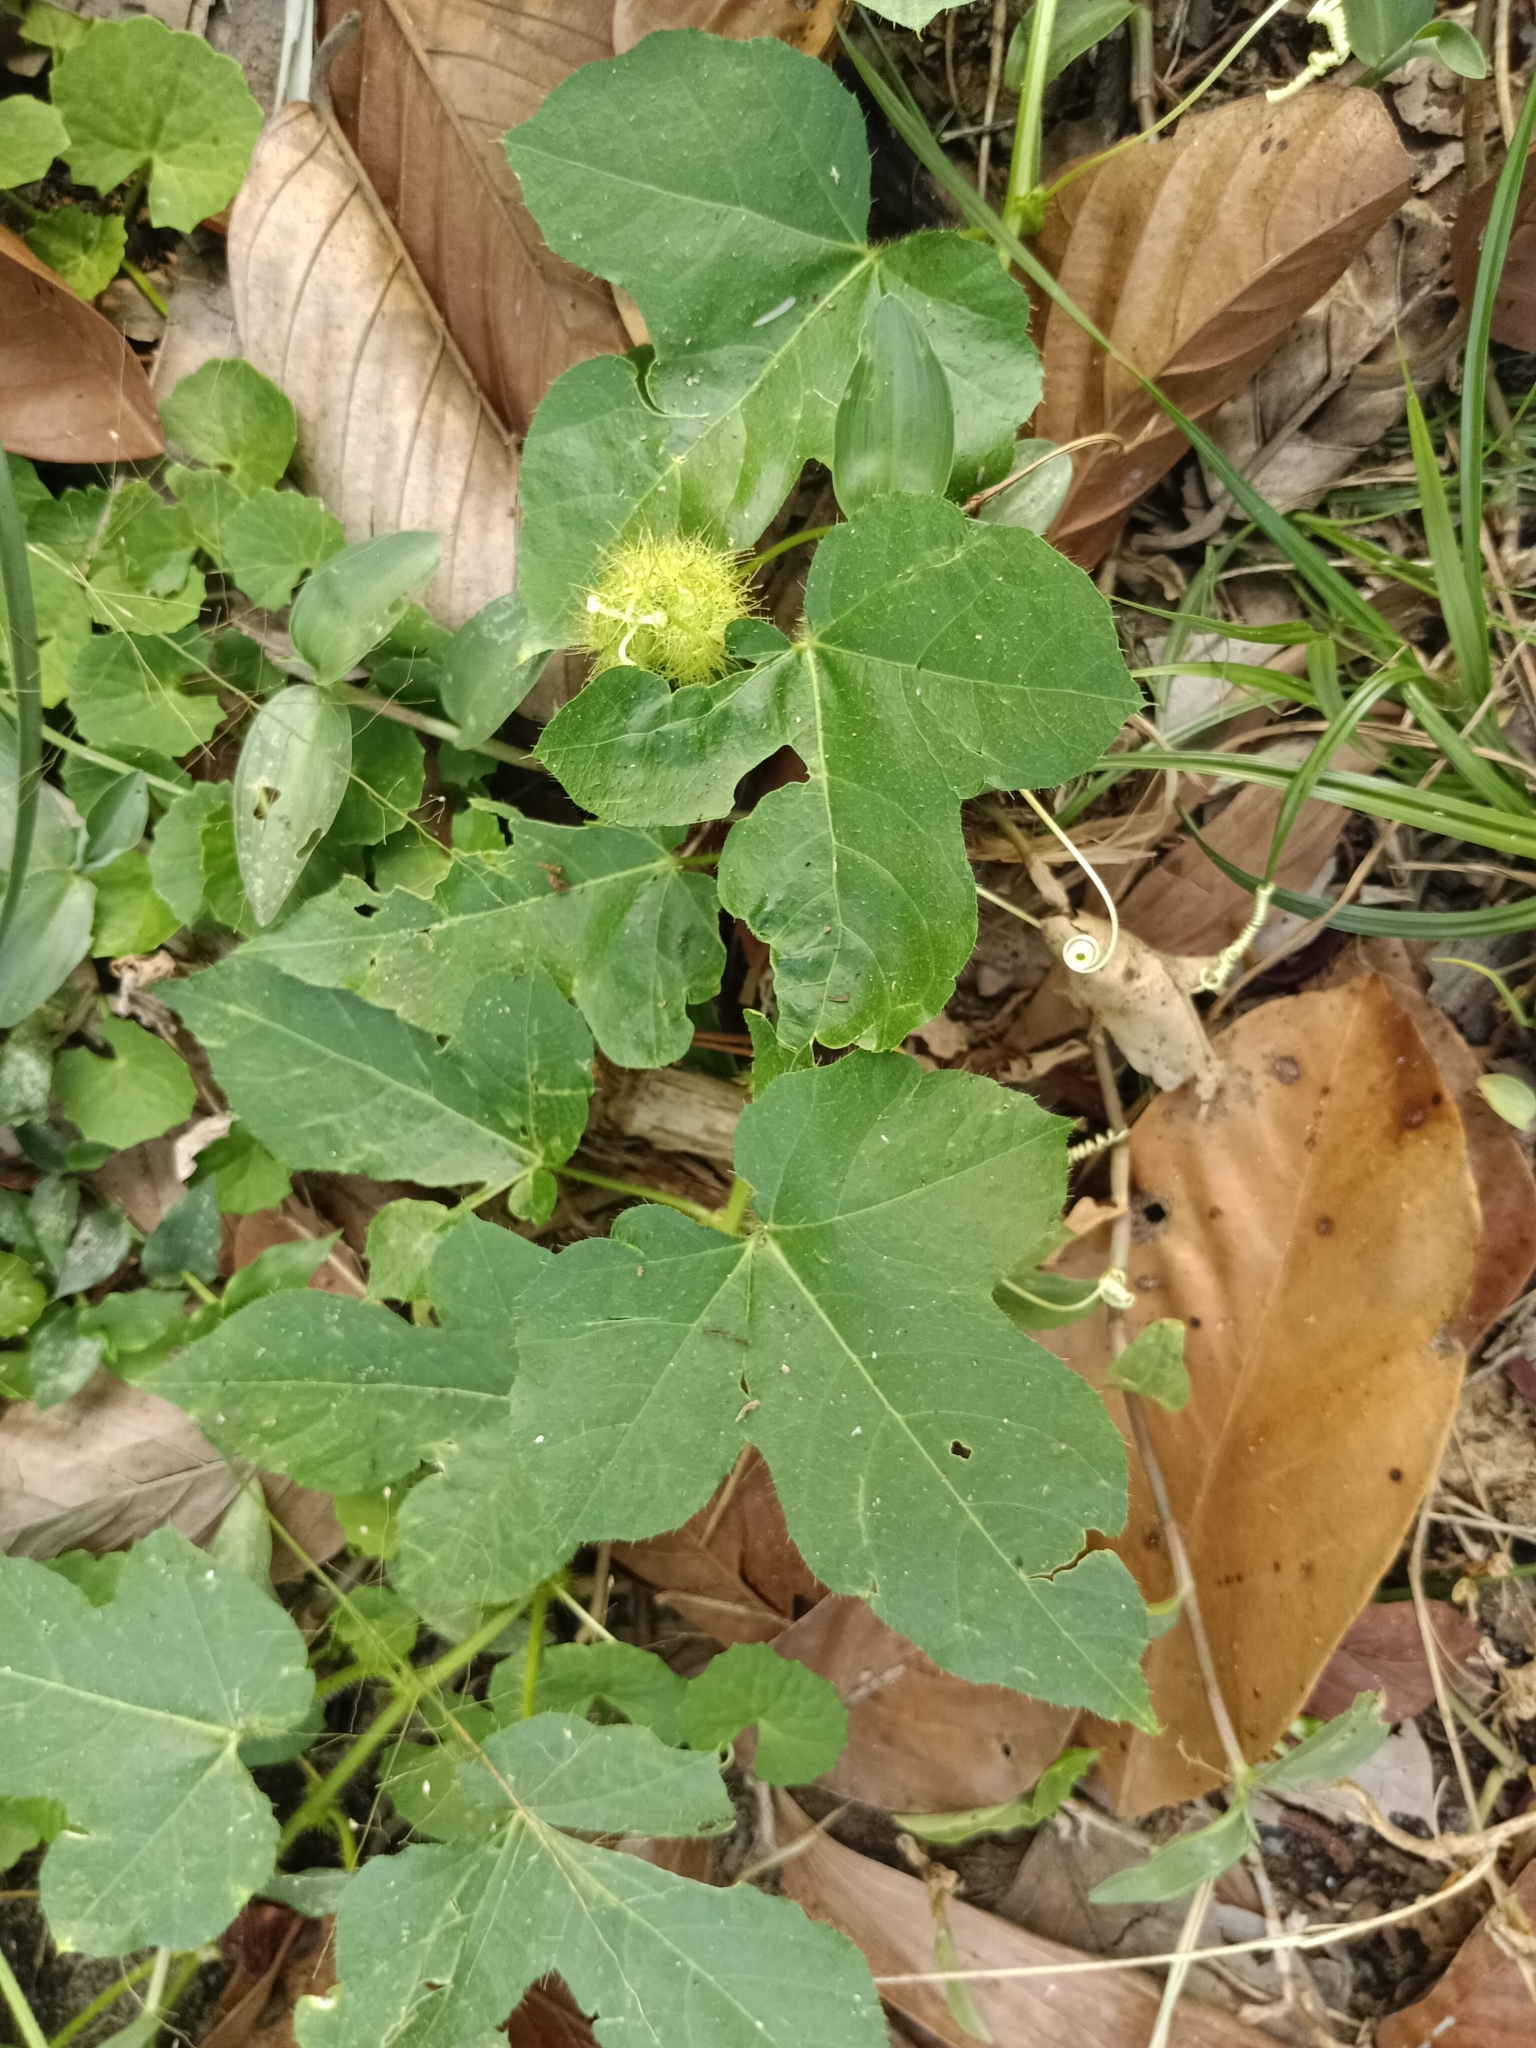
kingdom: Plantae
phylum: Tracheophyta
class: Magnoliopsida
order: Malpighiales
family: Passifloraceae
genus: Passiflora
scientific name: Passiflora vesicaria
